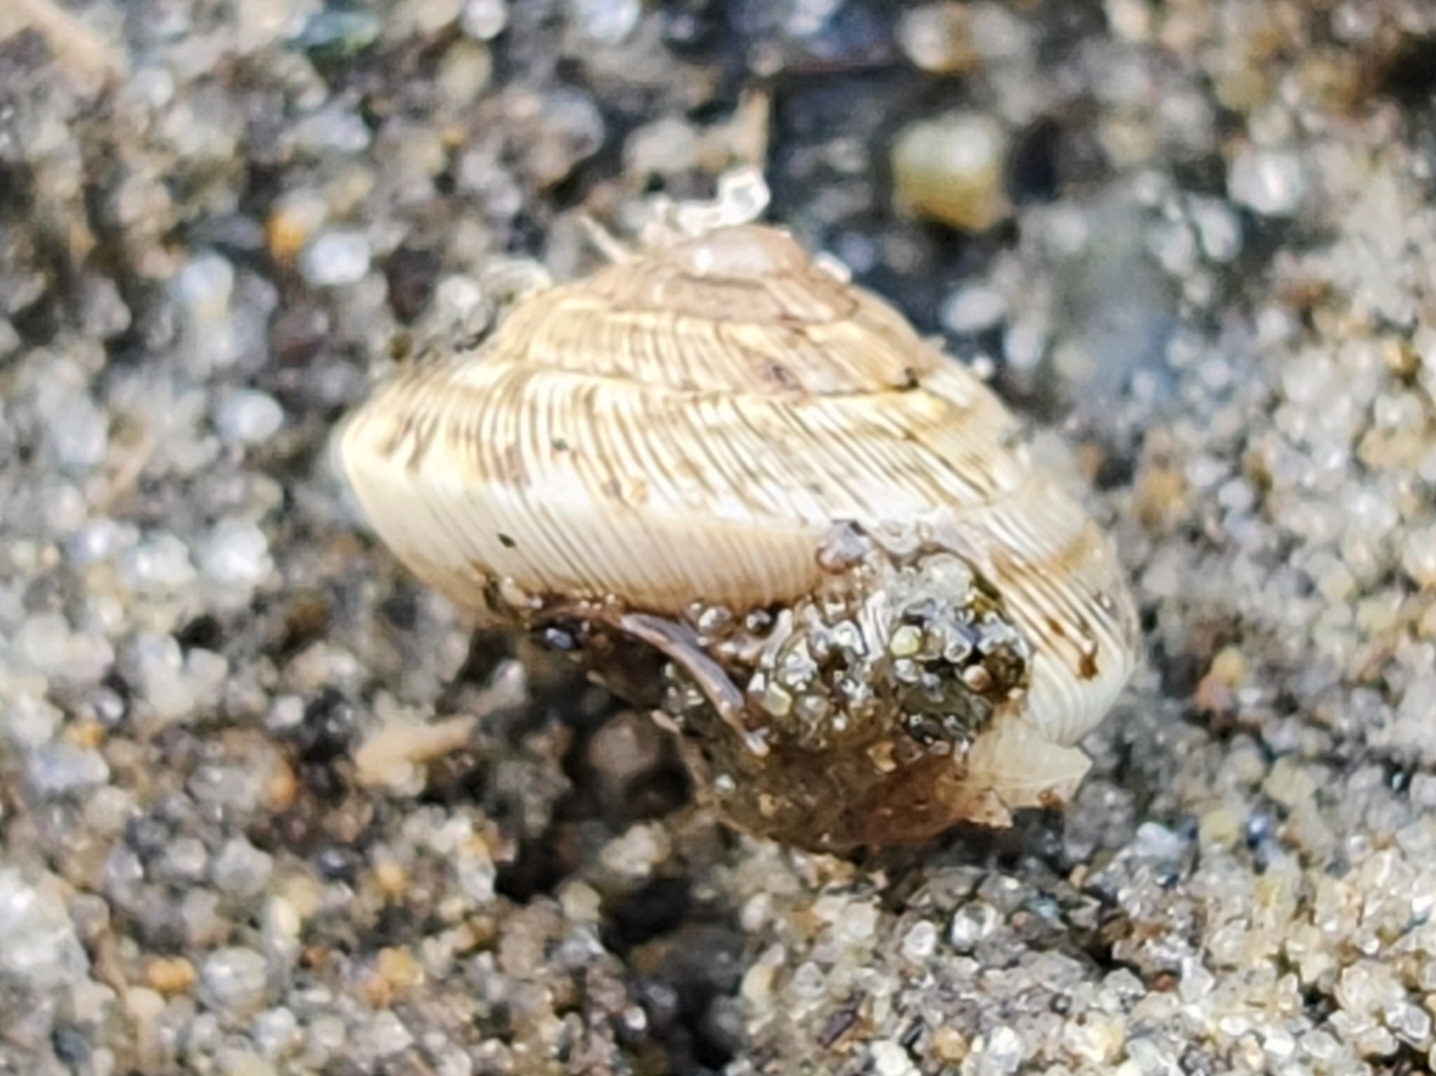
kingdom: Animalia
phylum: Mollusca
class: Gastropoda
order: Stylommatophora
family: Geomitridae
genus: Xeroplexa
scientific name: Xeroplexa intersecta
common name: Wrinkled snail
